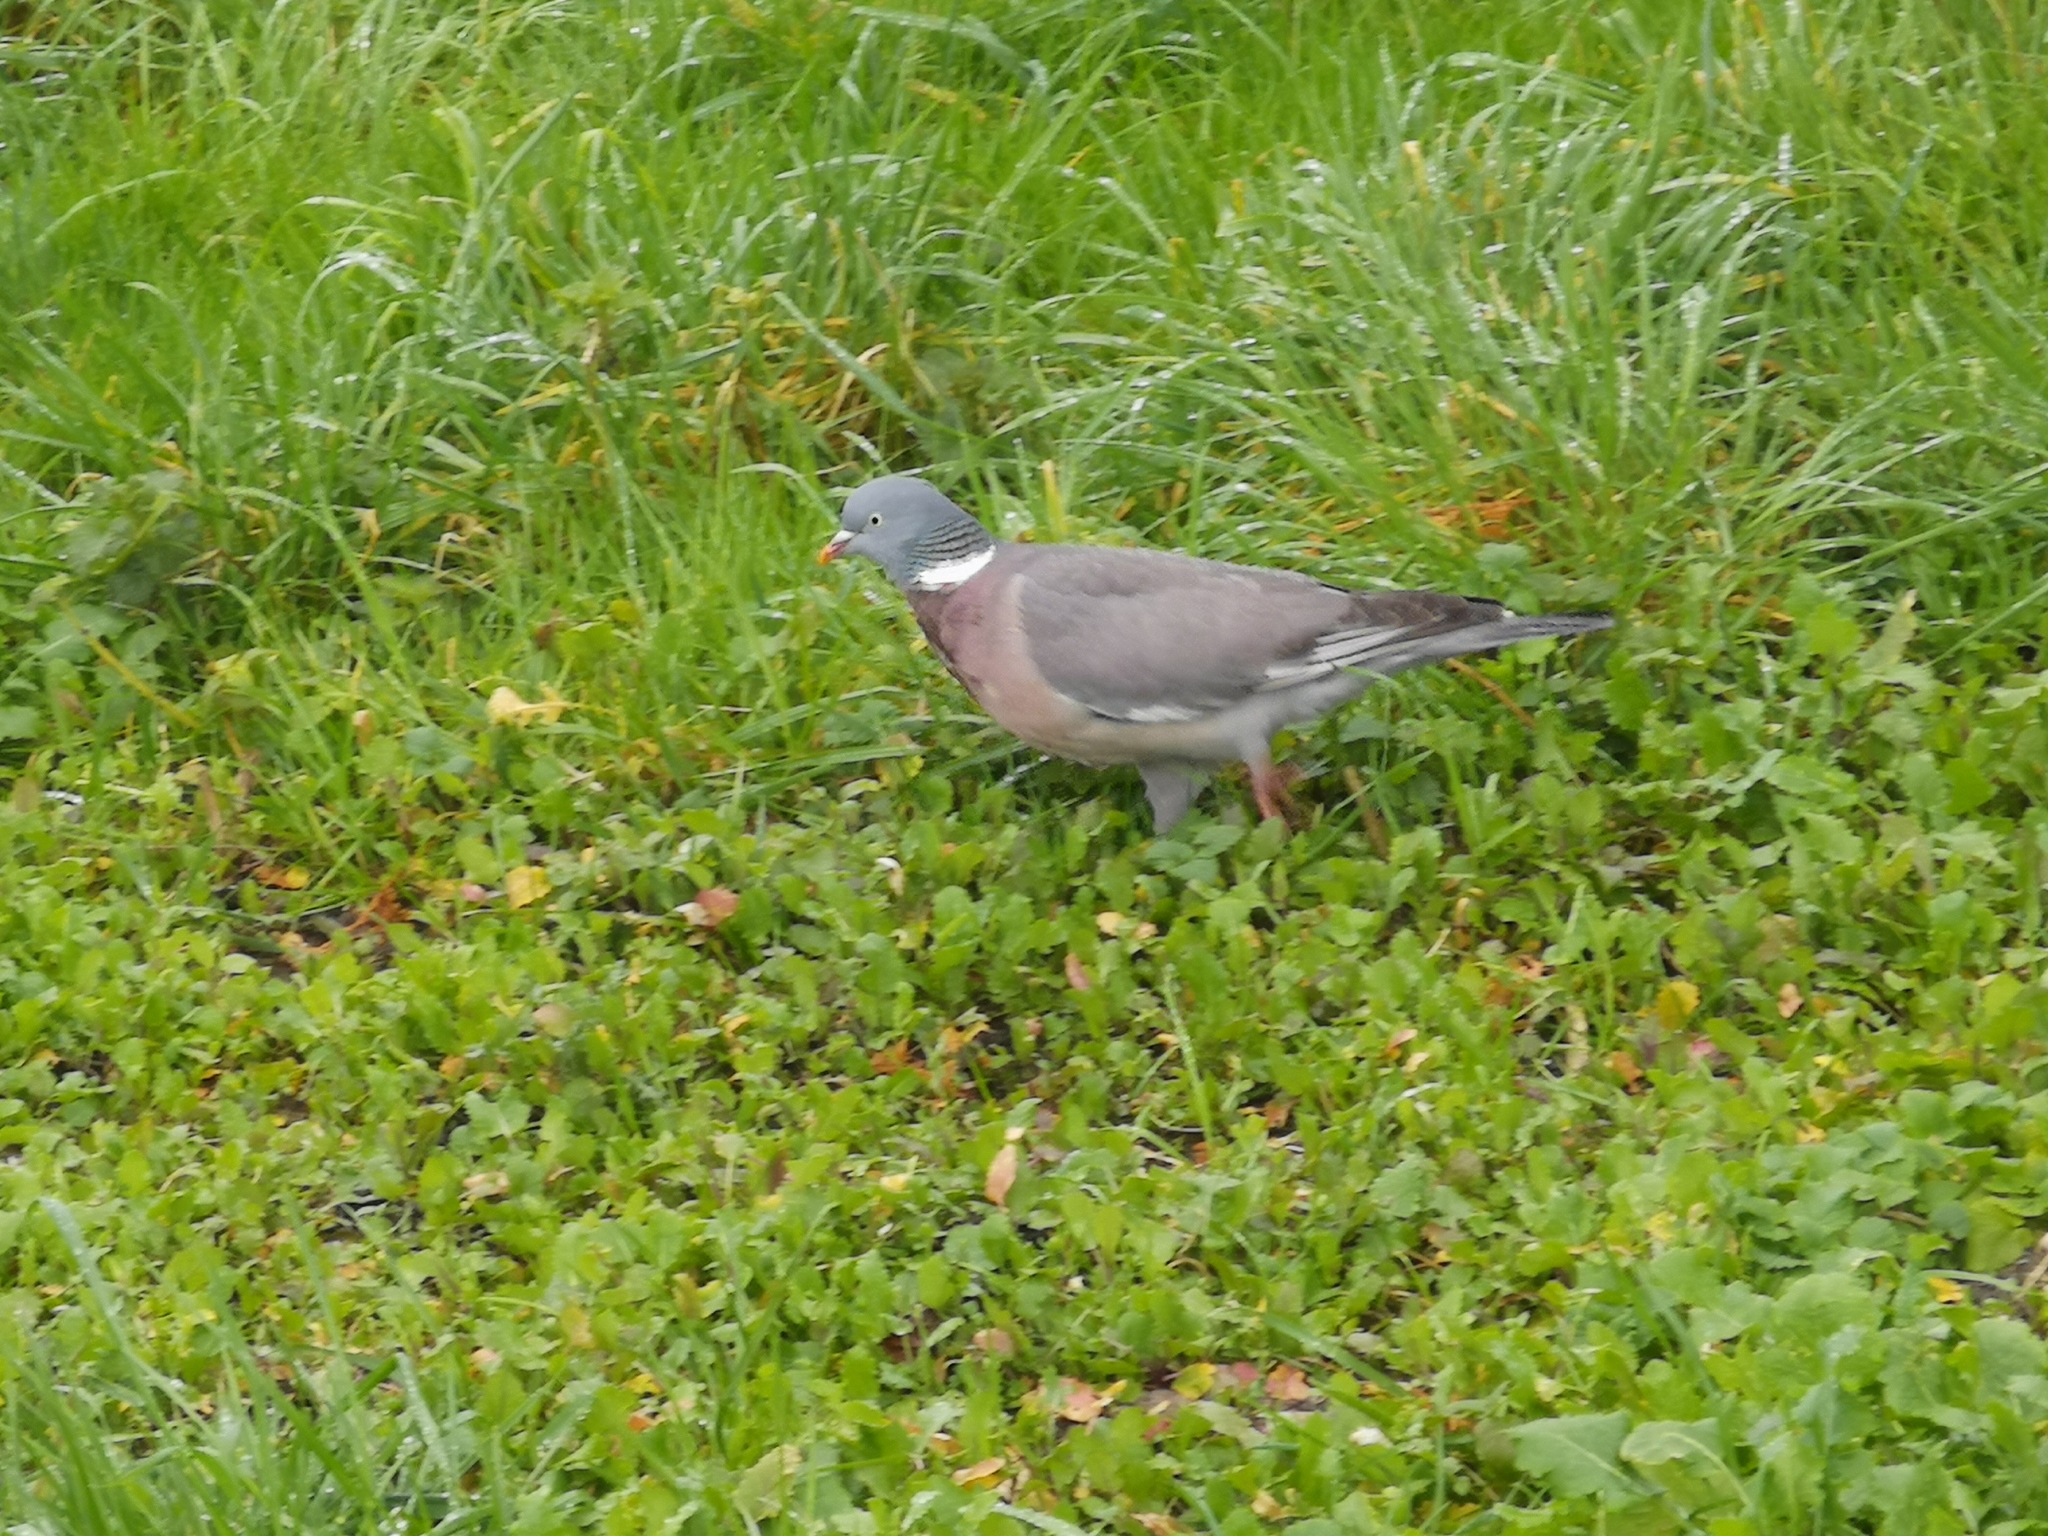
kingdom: Animalia
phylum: Chordata
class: Aves
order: Columbiformes
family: Columbidae
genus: Columba
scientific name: Columba palumbus
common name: Common wood pigeon
